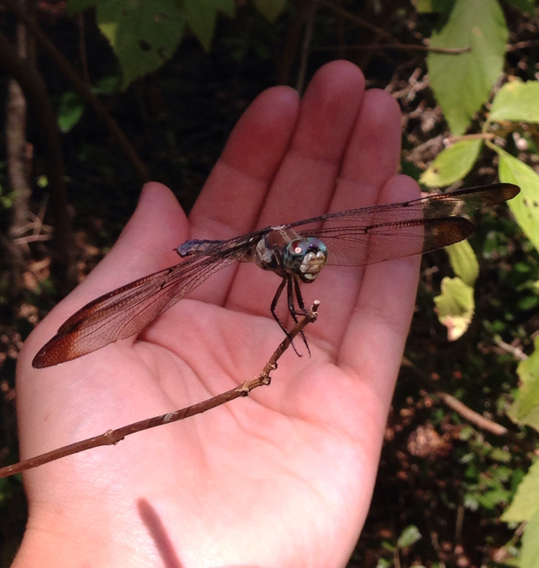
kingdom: Animalia
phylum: Arthropoda
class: Insecta
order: Odonata
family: Libellulidae
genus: Libellula
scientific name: Libellula vibrans
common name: Great blue skimmer
